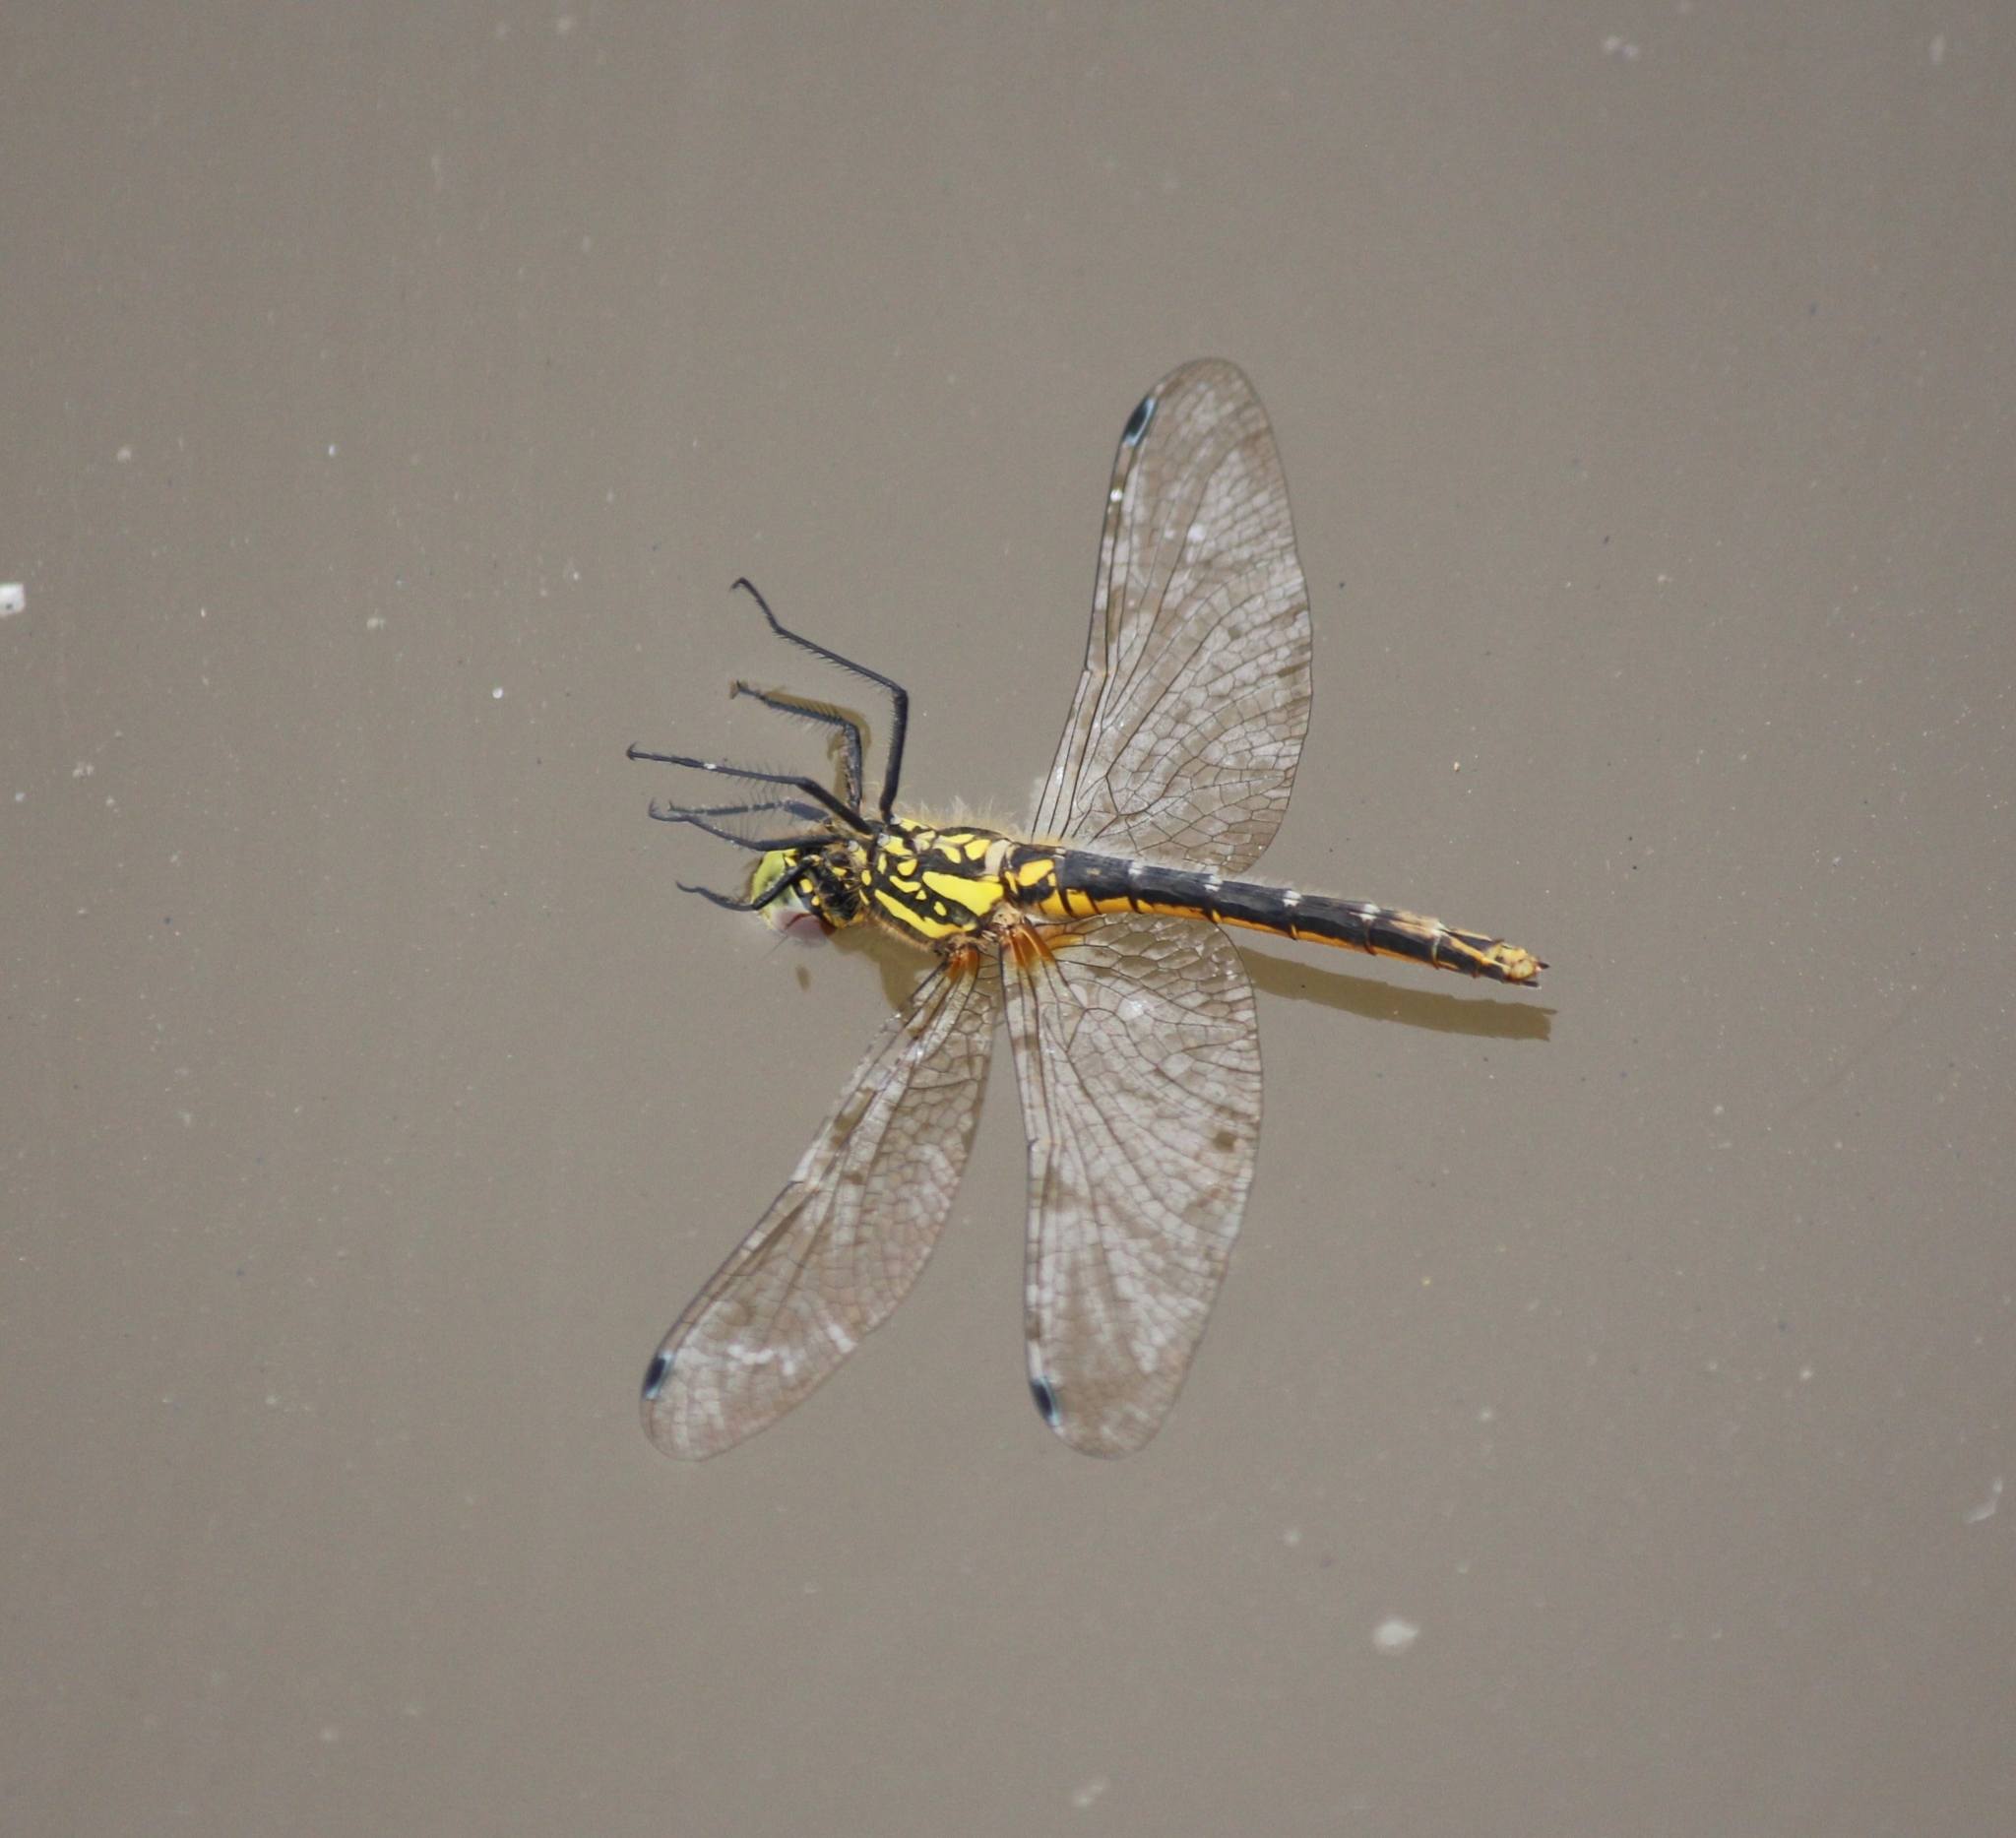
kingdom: Animalia
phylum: Arthropoda
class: Insecta
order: Odonata
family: Libellulidae
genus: Sympetrum
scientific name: Sympetrum danae
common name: Black darter
